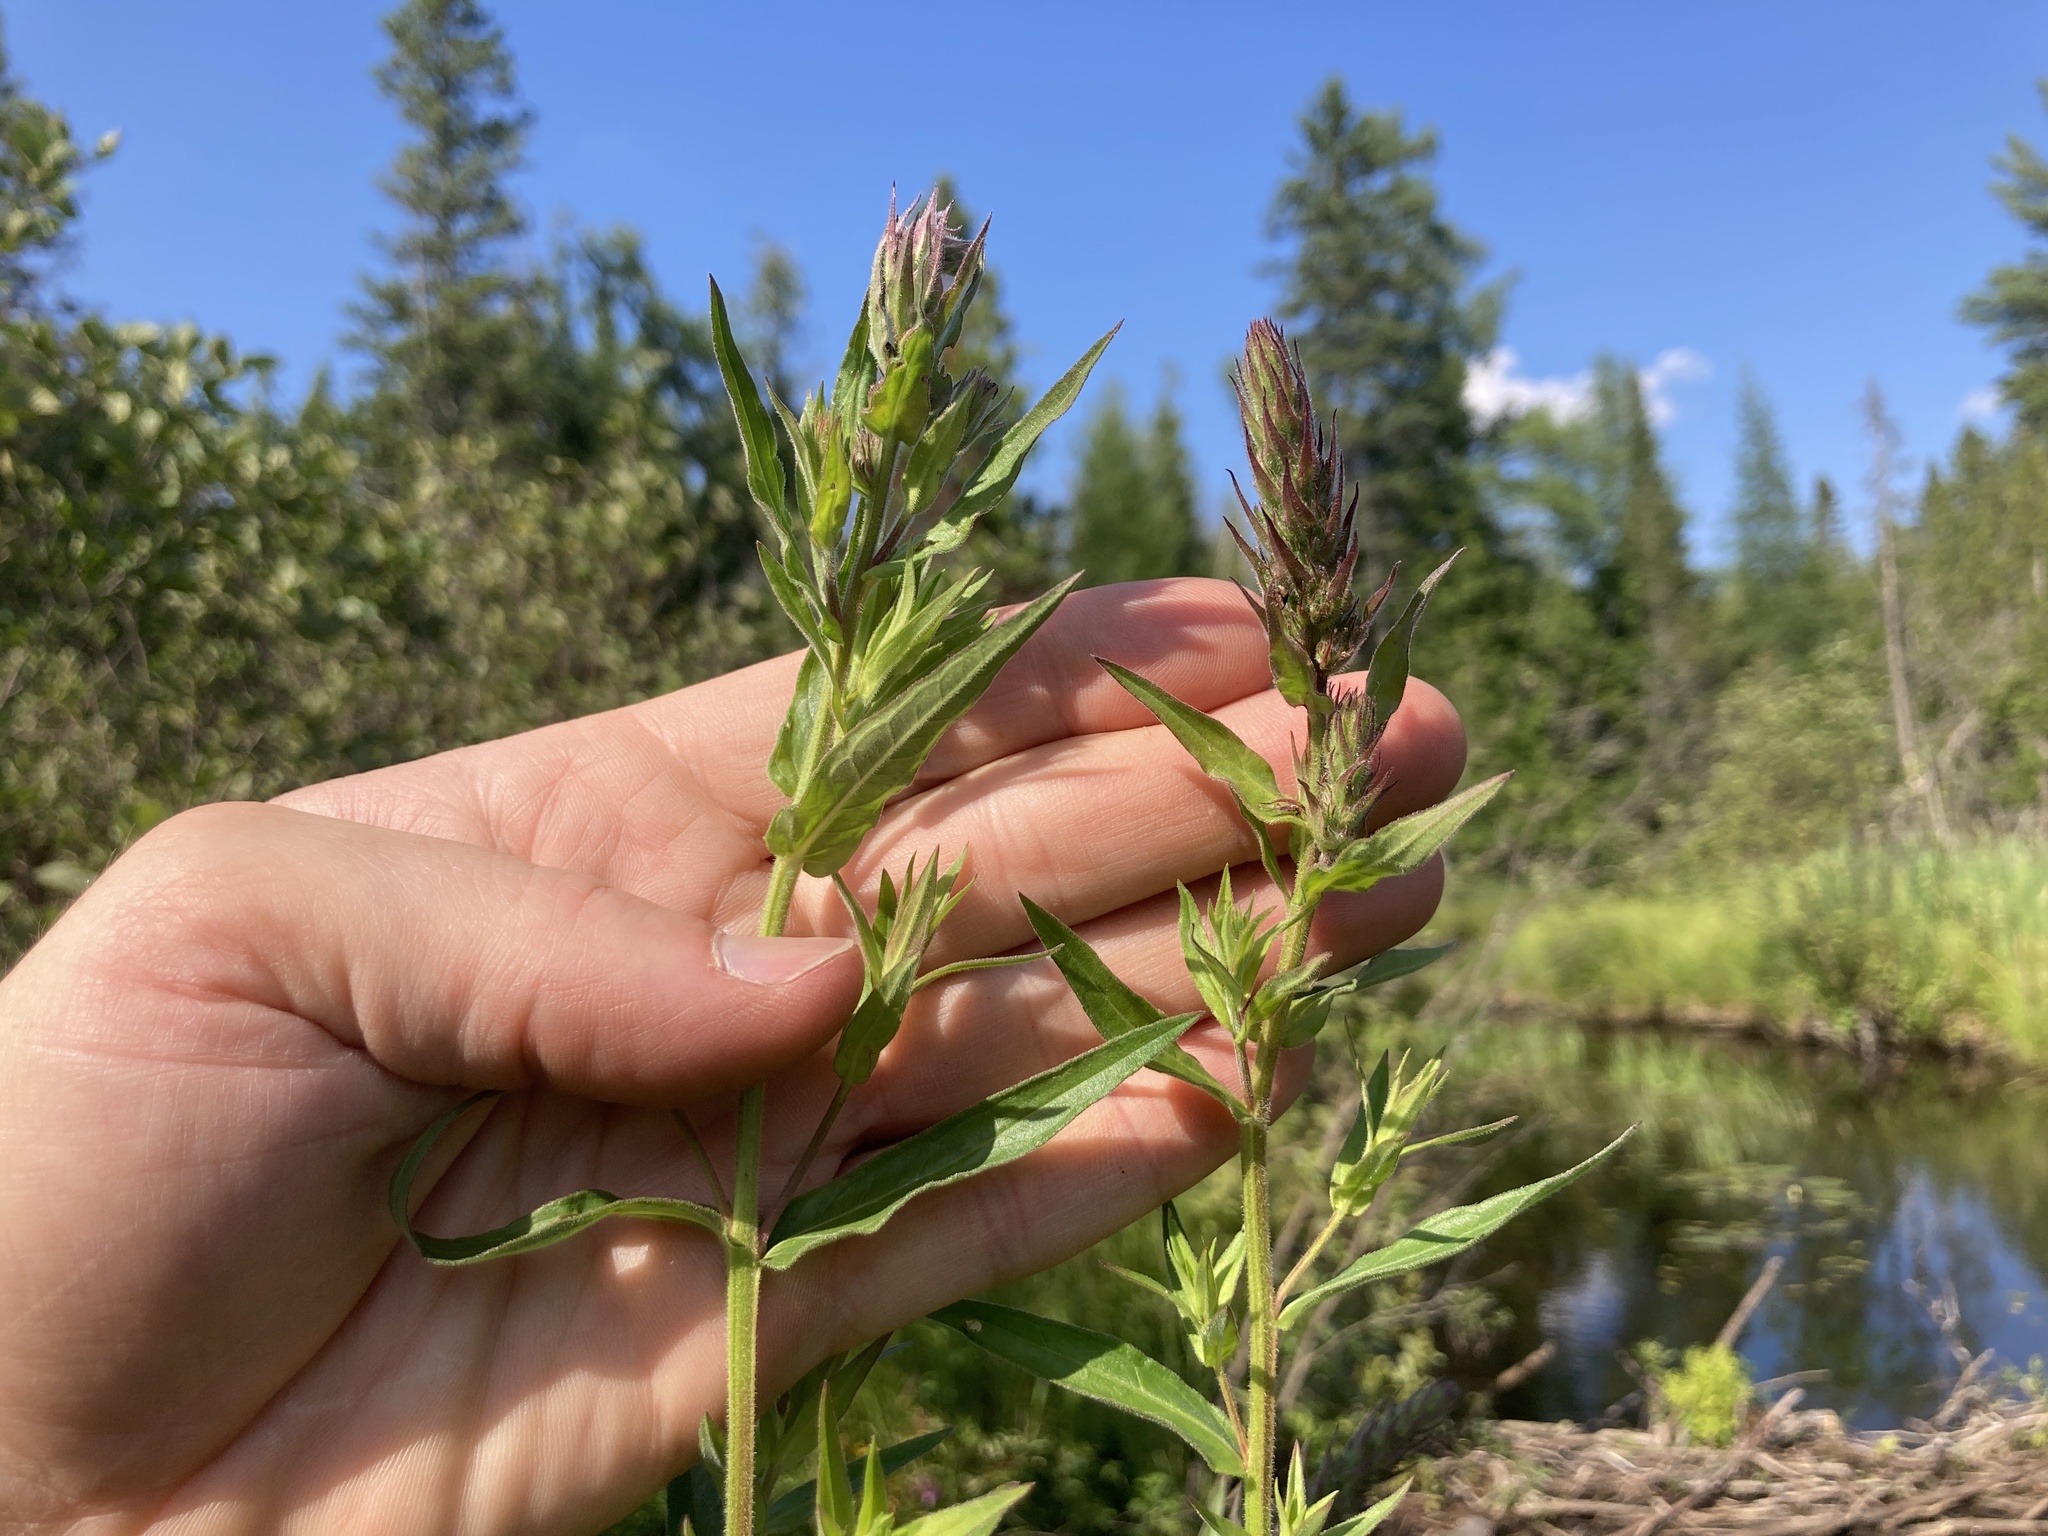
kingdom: Plantae
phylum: Tracheophyta
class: Magnoliopsida
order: Myrtales
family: Lythraceae
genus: Lythrum
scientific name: Lythrum salicaria
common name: Purple loosestrife
